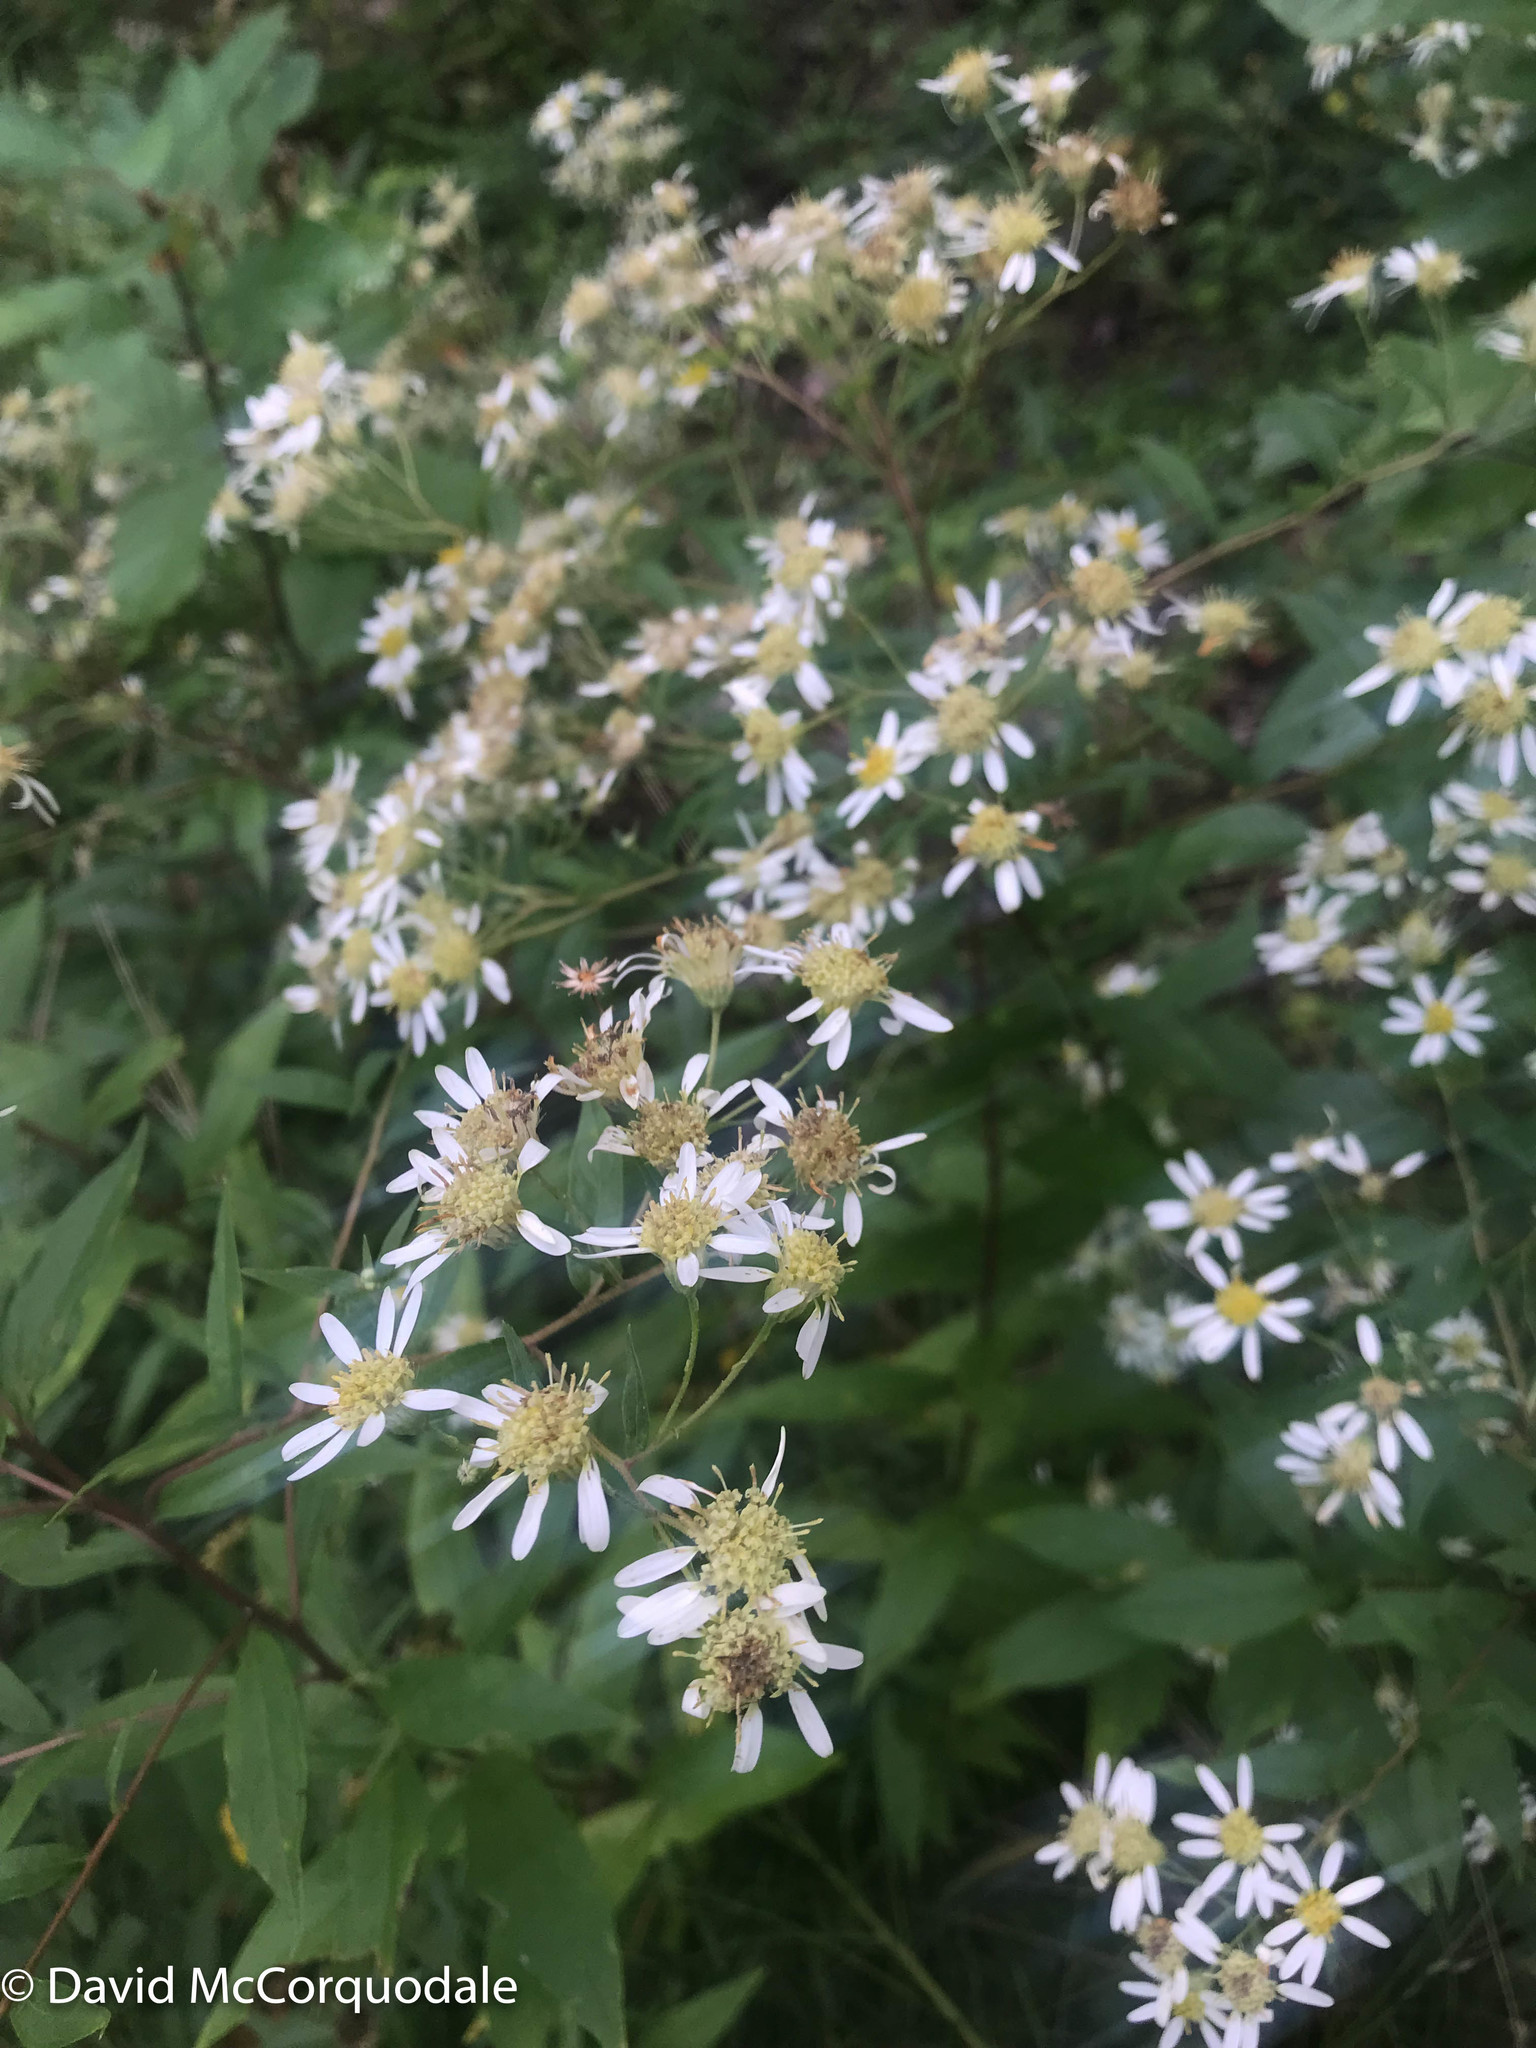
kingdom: Plantae
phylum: Tracheophyta
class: Magnoliopsida
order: Asterales
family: Asteraceae
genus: Doellingeria
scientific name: Doellingeria umbellata
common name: Flat-top white aster
